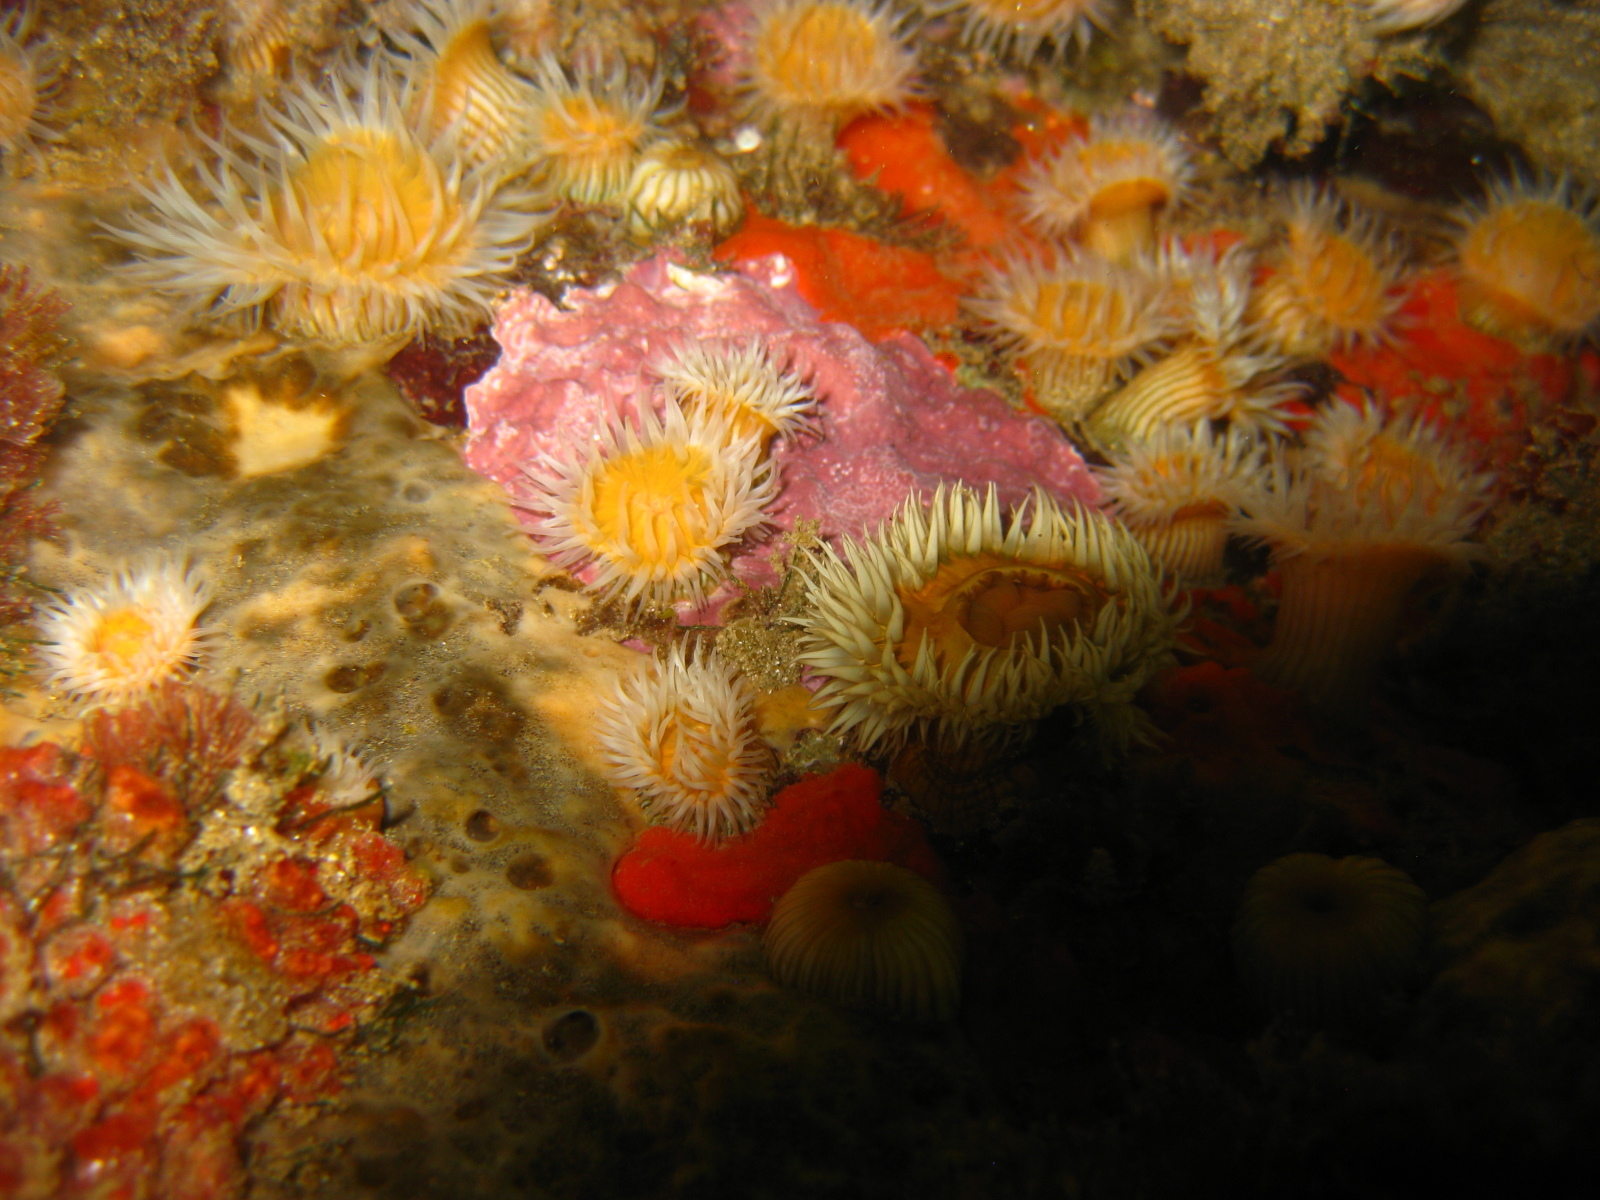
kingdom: Animalia
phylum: Cnidaria
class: Anthozoa
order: Actiniaria
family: Sagartiidae
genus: Anthothoe
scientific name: Anthothoe albocincta
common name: Orange striped anemone
